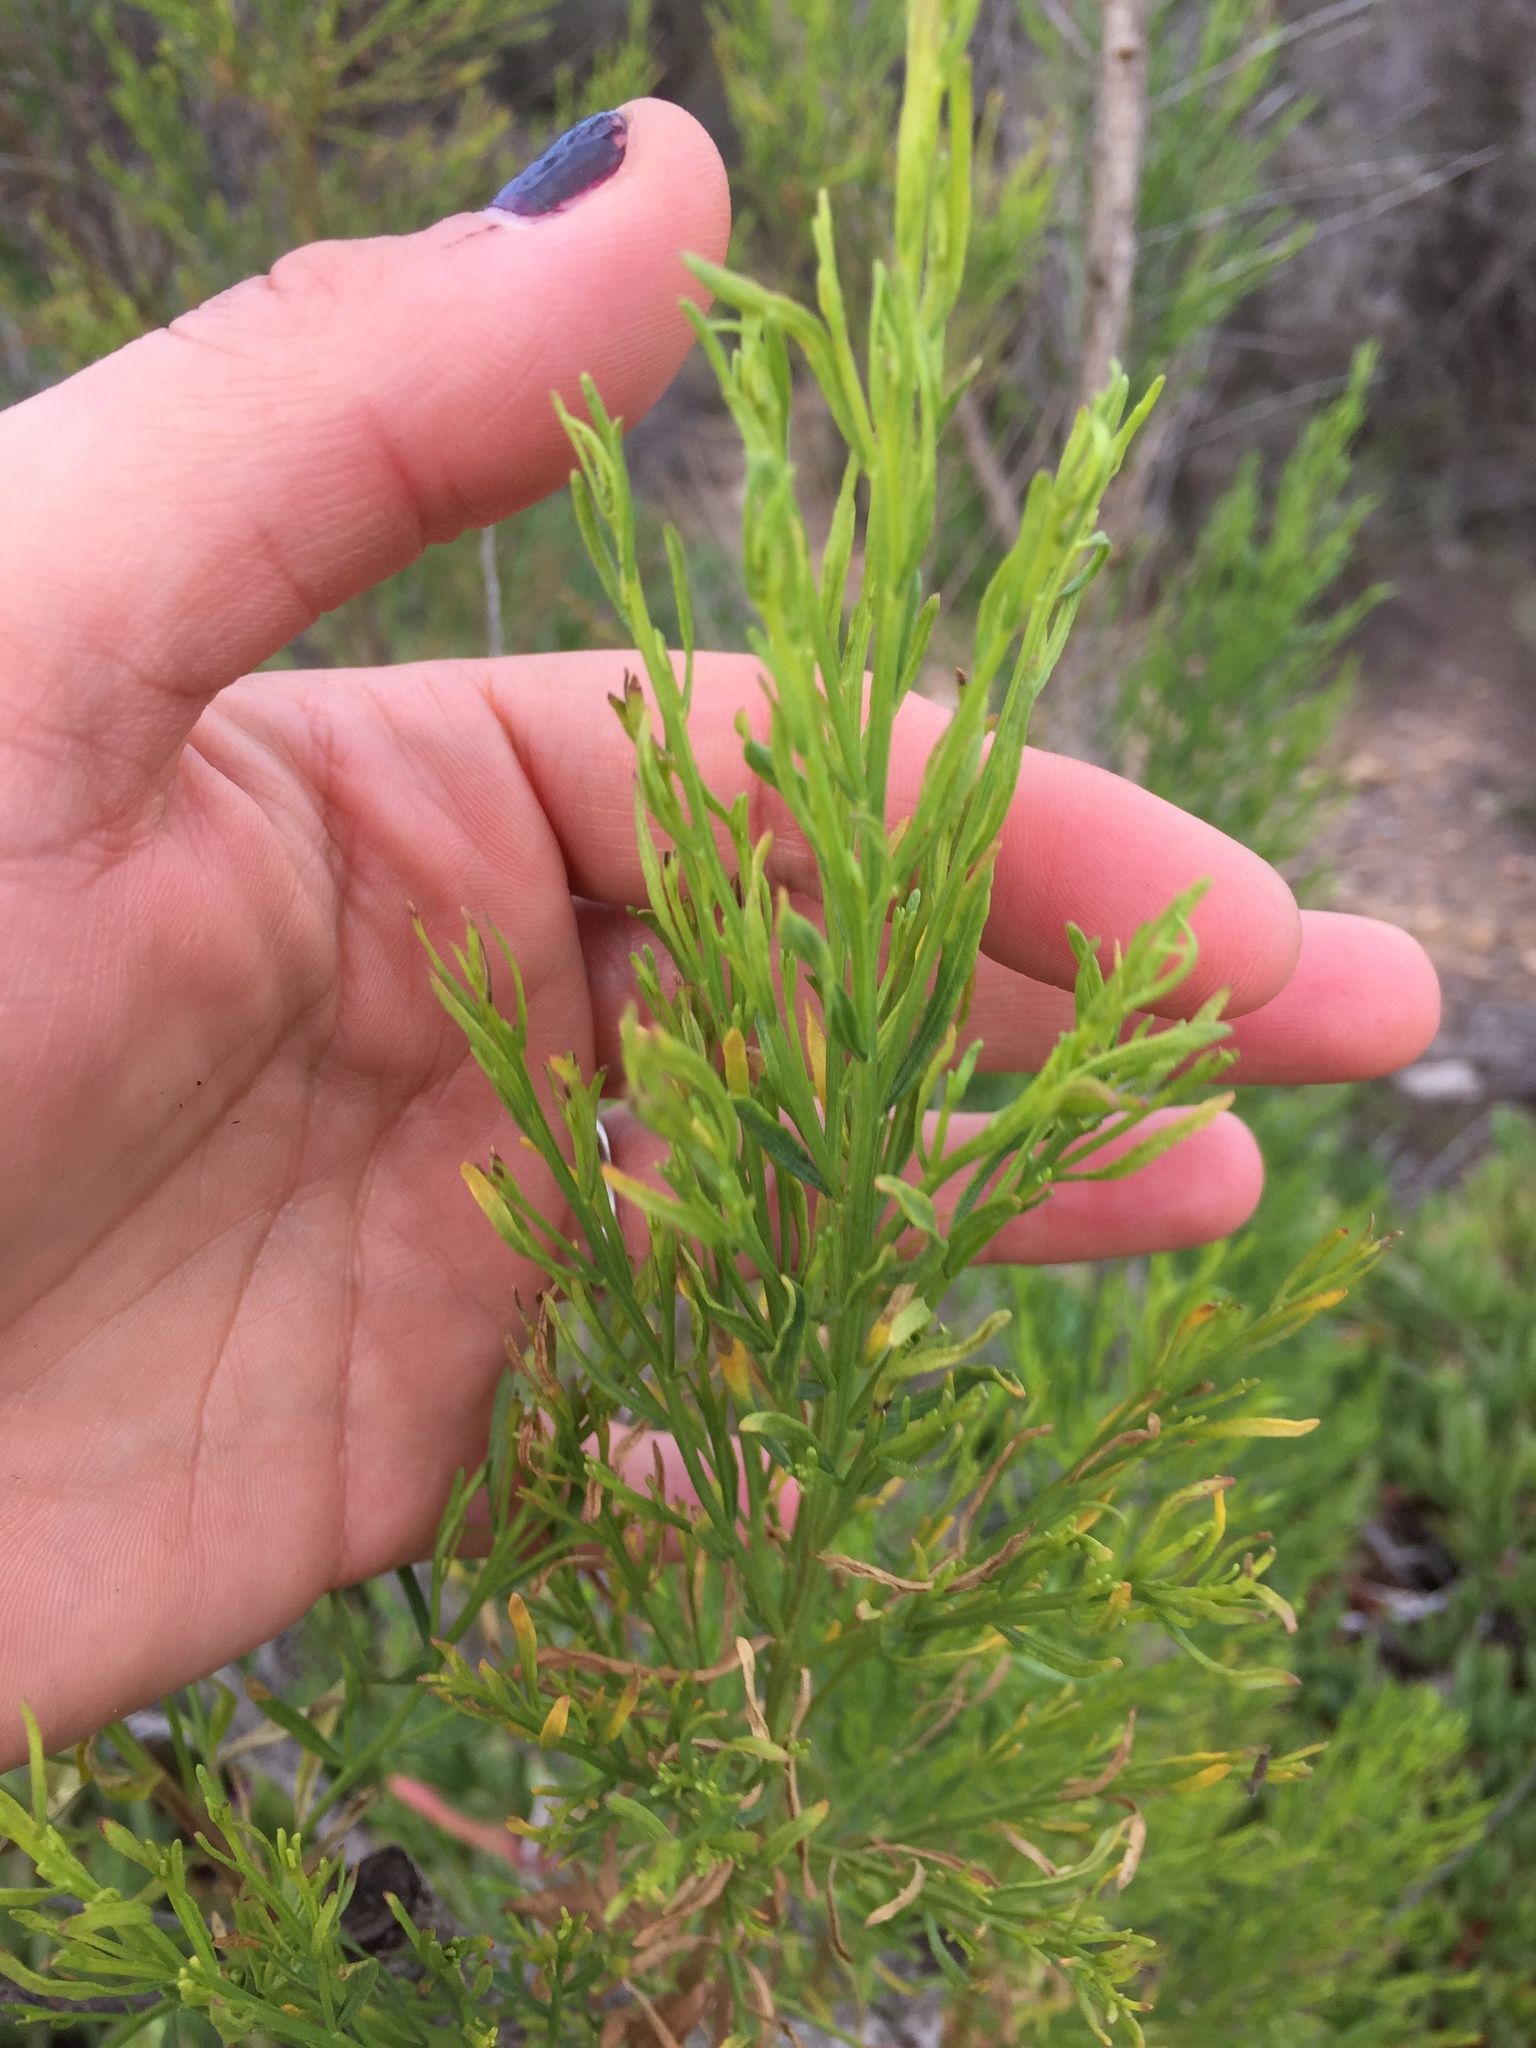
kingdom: Plantae
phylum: Tracheophyta
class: Magnoliopsida
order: Asterales
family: Asteraceae
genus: Baccharis
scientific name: Baccharis sarothroides
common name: Desert-broom
